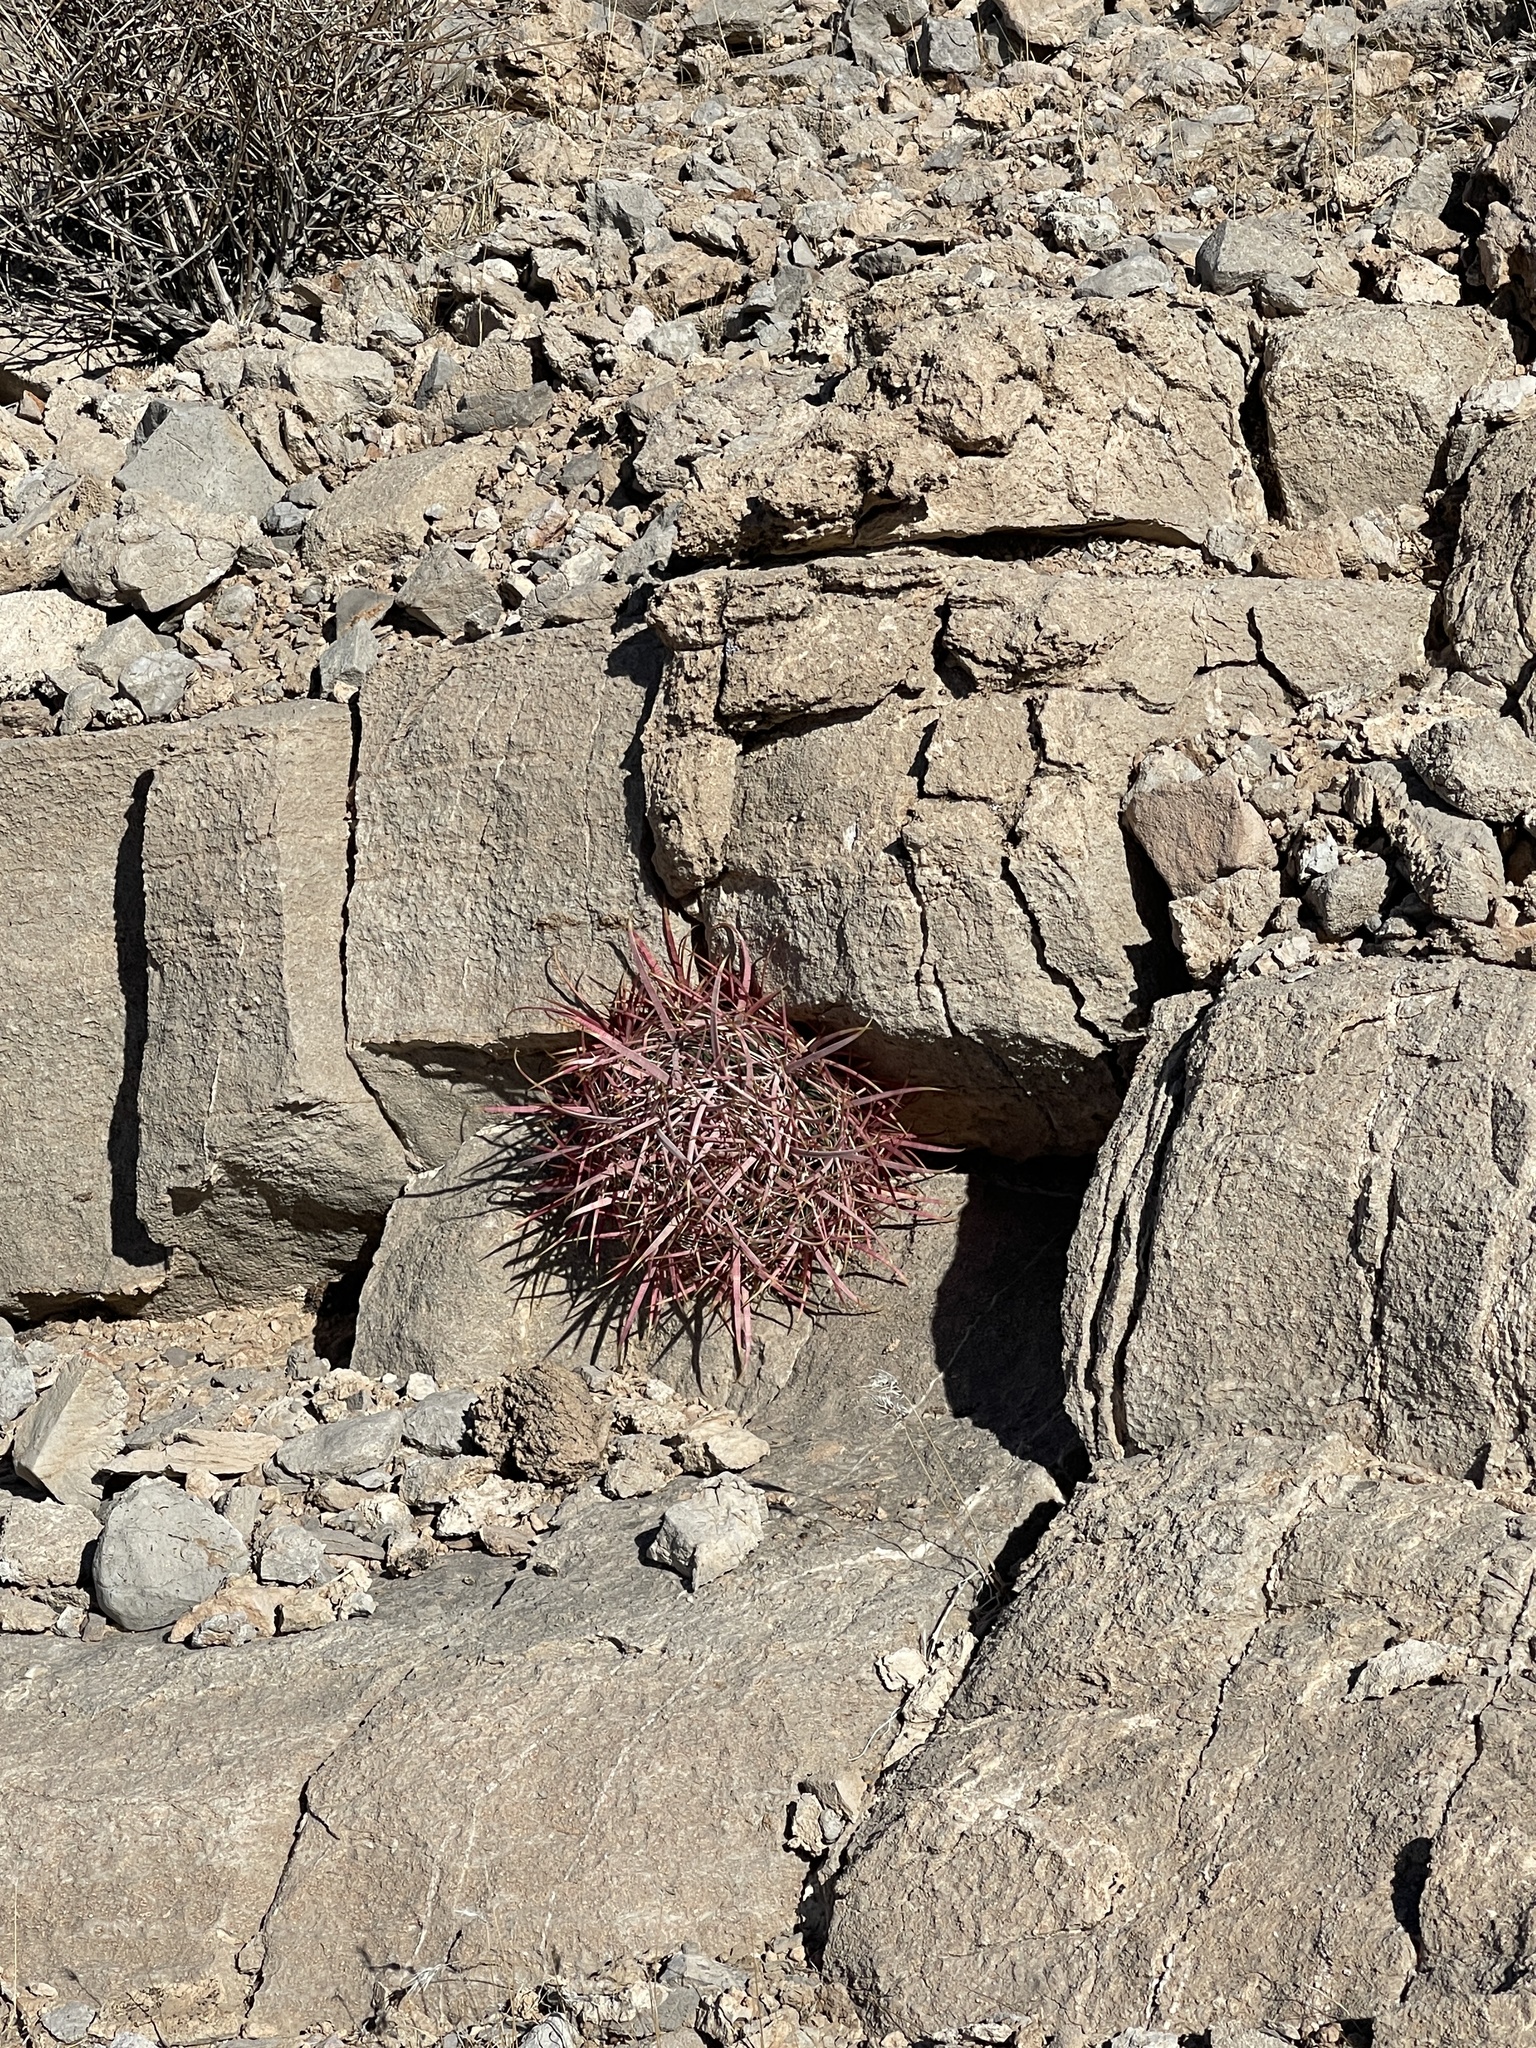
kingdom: Plantae
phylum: Tracheophyta
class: Magnoliopsida
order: Caryophyllales
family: Cactaceae
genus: Ferocactus
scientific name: Ferocactus cylindraceus
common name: California barrel cactus
